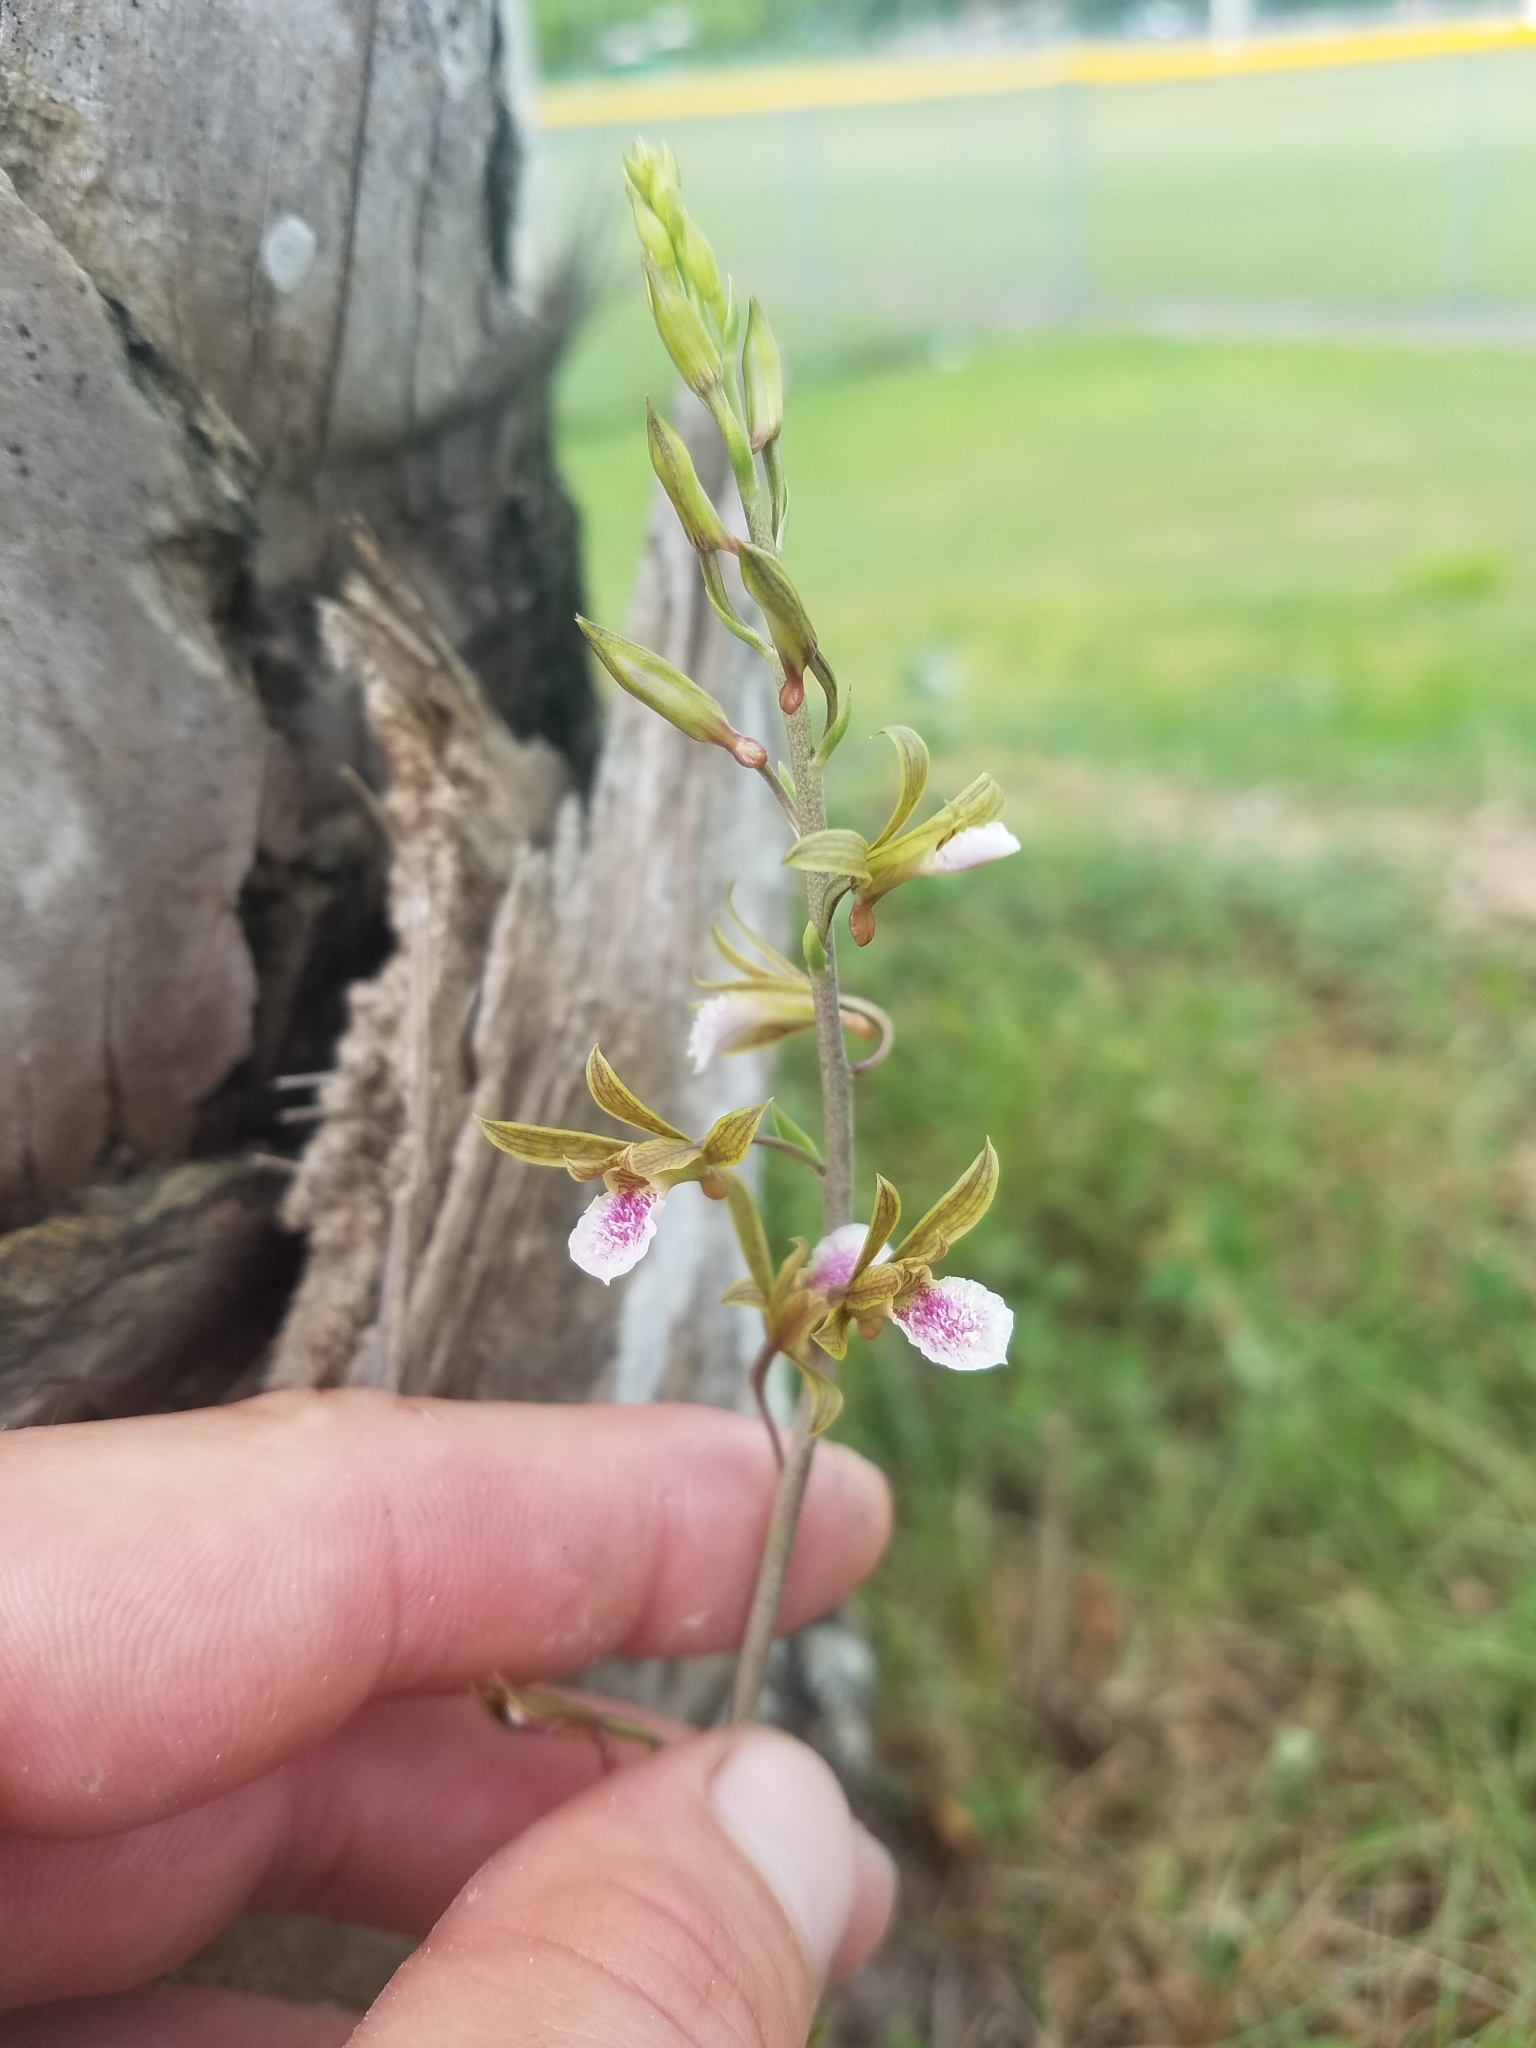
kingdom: Plantae
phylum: Tracheophyta
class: Liliopsida
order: Asparagales
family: Orchidaceae
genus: Eulophia
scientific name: Eulophia graminea
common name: Orchid
